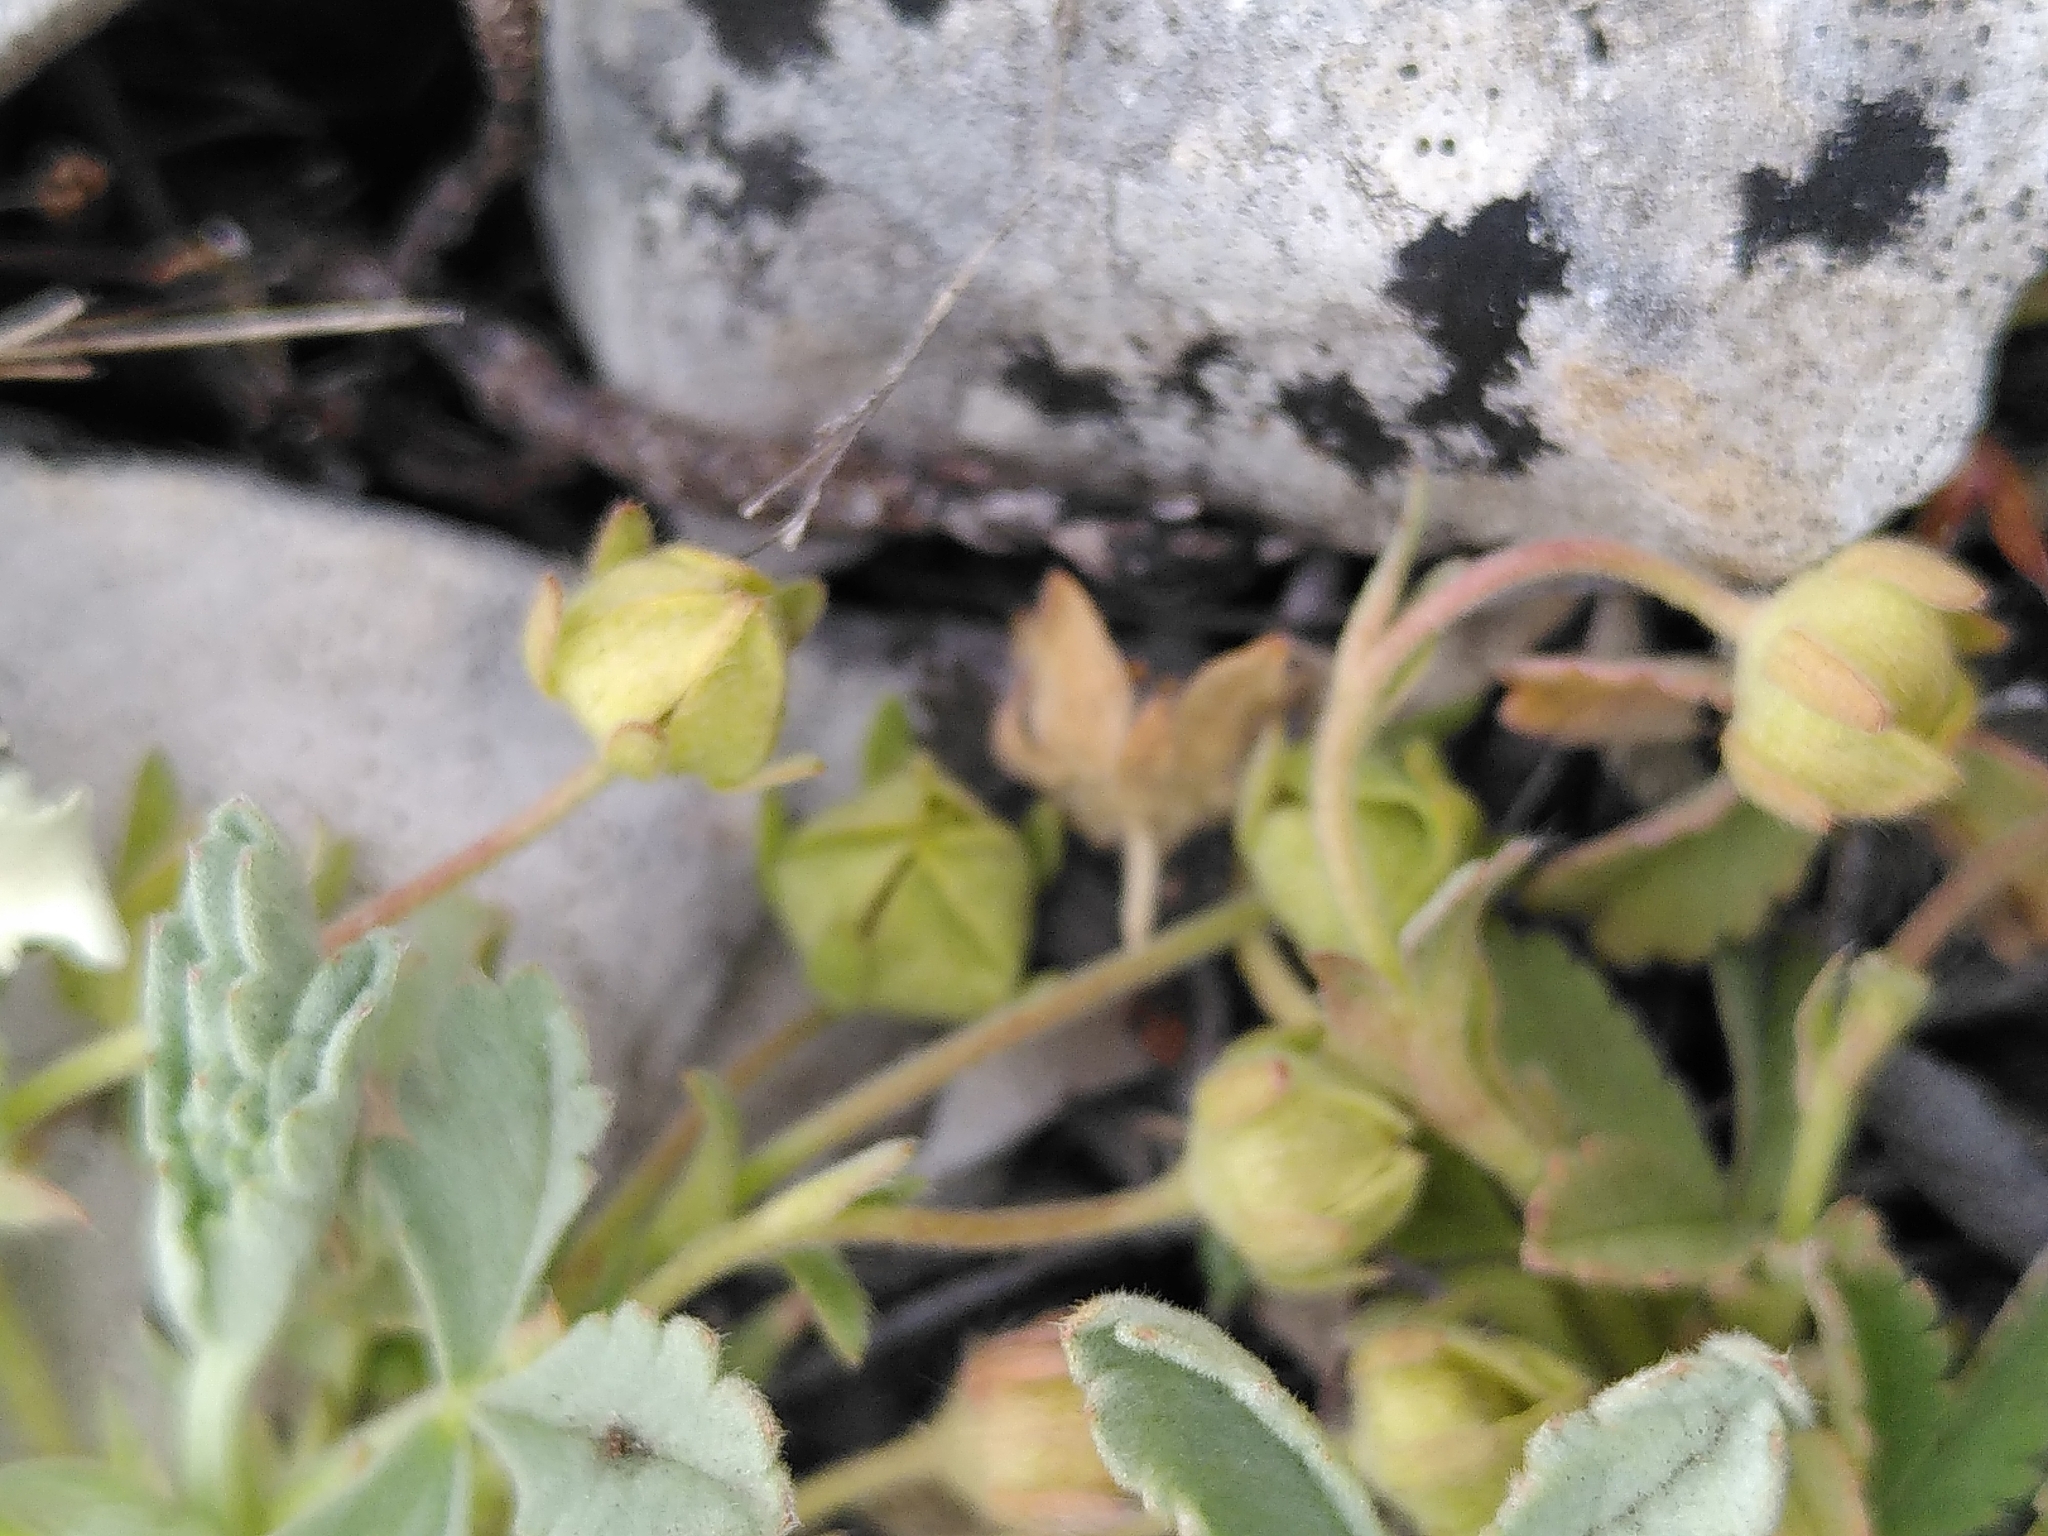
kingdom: Plantae
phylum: Tracheophyta
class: Magnoliopsida
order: Rosales
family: Rosaceae
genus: Potentilla
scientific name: Potentilla cinerea
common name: Ashy cinquefoil
